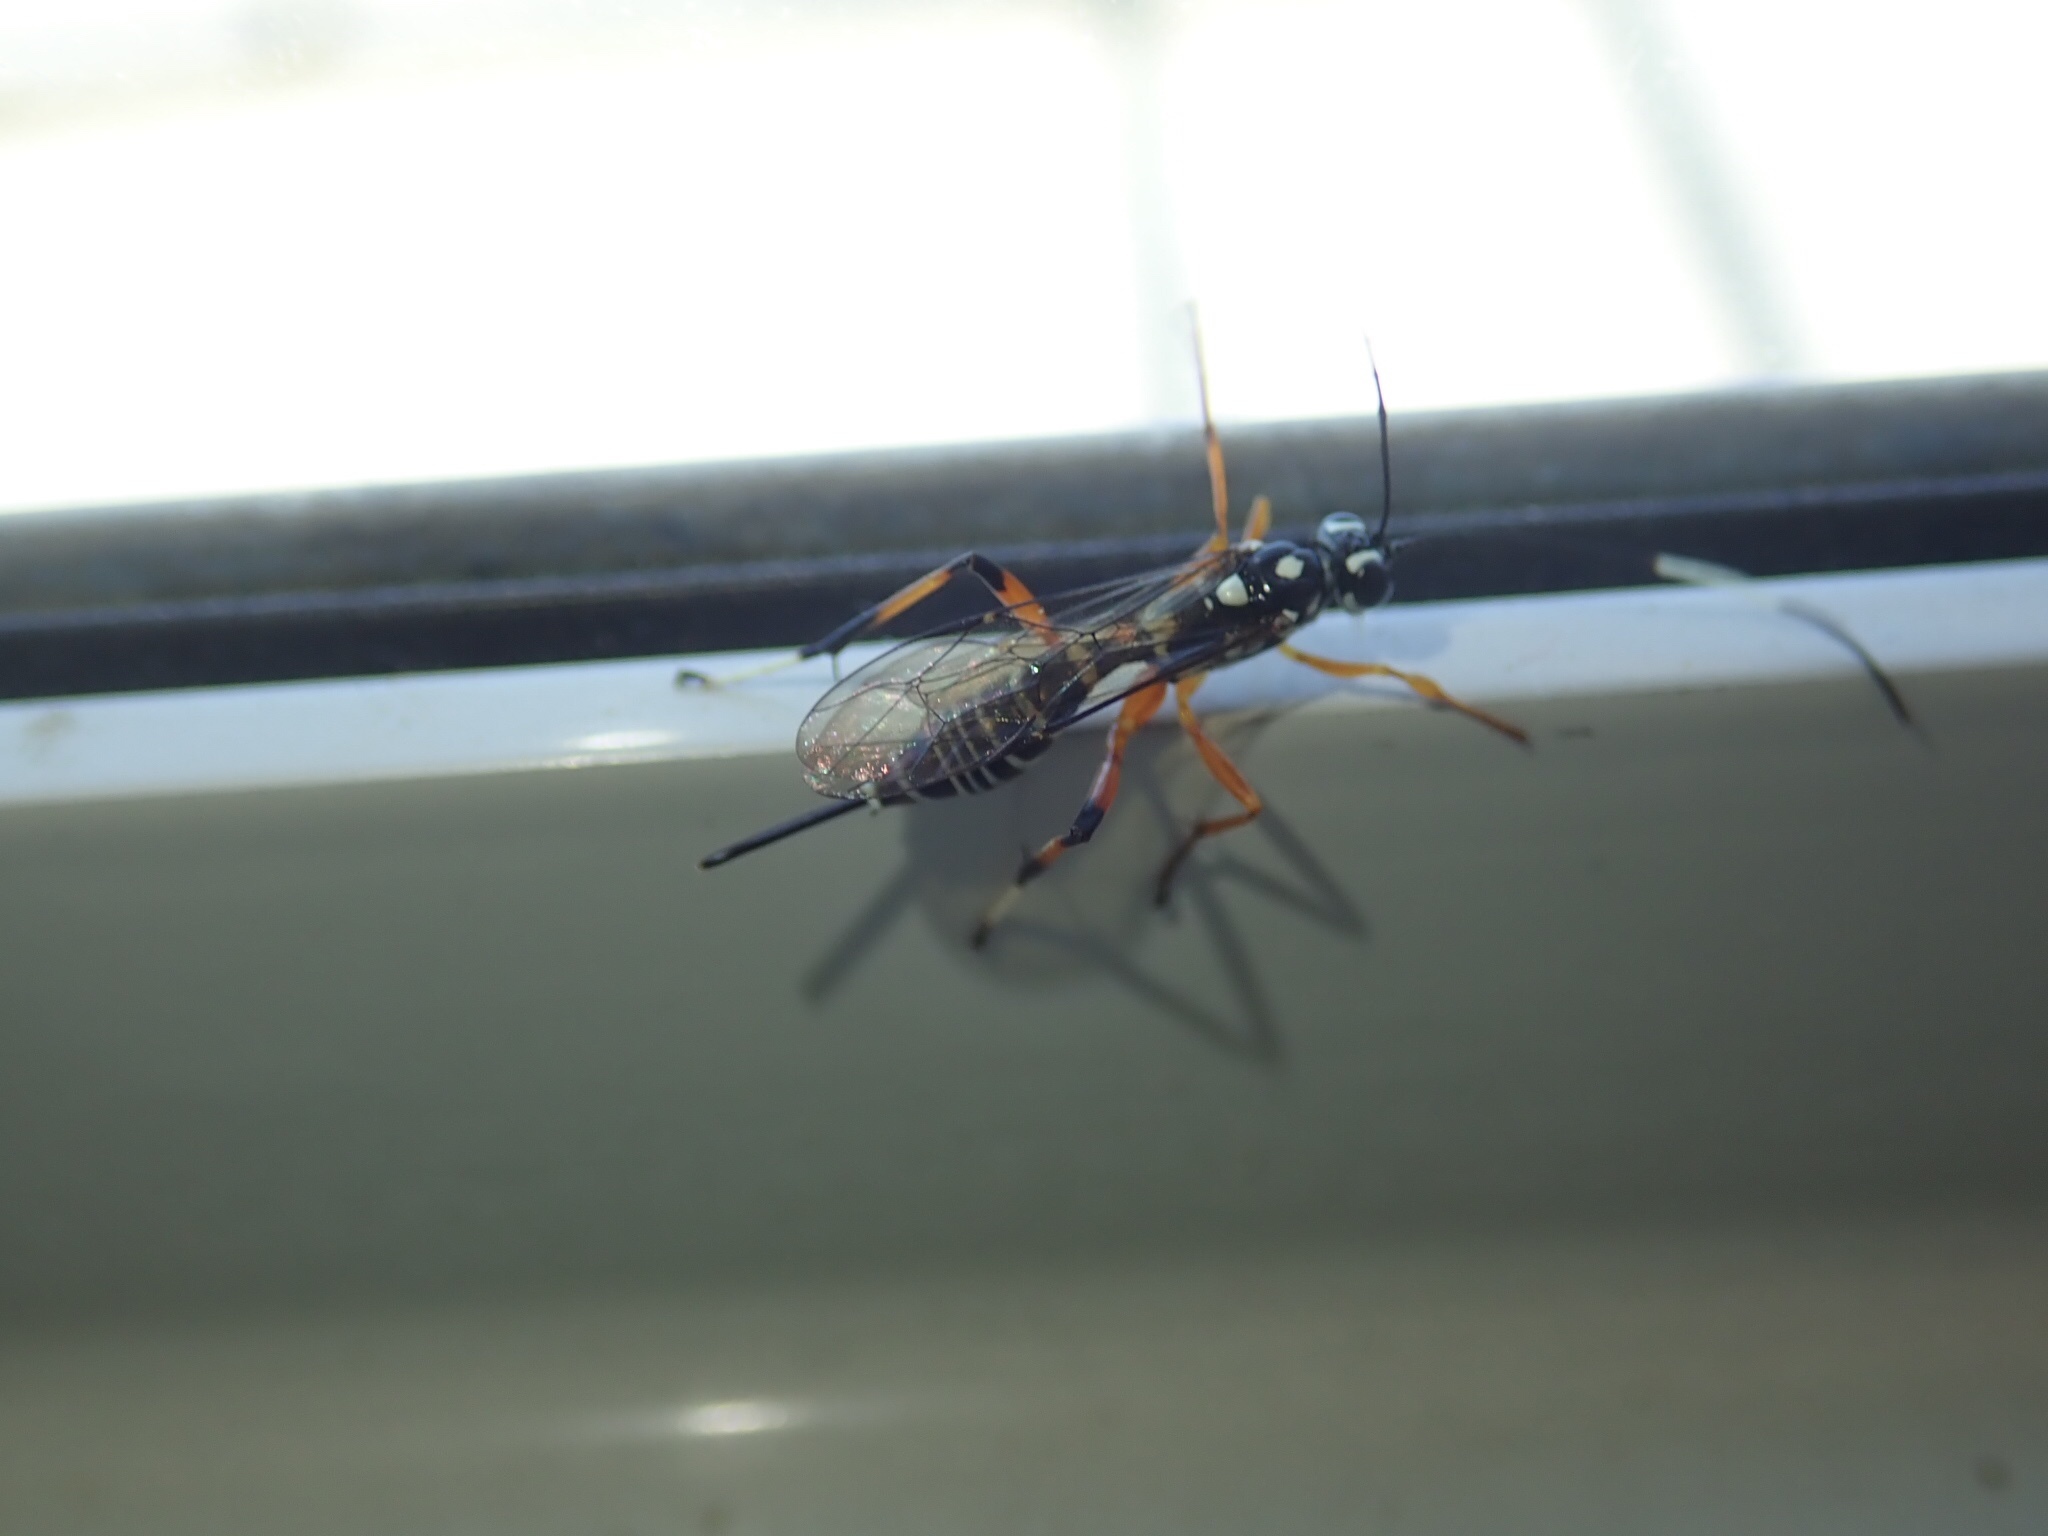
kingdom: Animalia
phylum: Arthropoda
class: Insecta
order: Hymenoptera
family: Ichneumonidae
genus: Xanthocryptus
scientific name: Xanthocryptus novozealandicus
